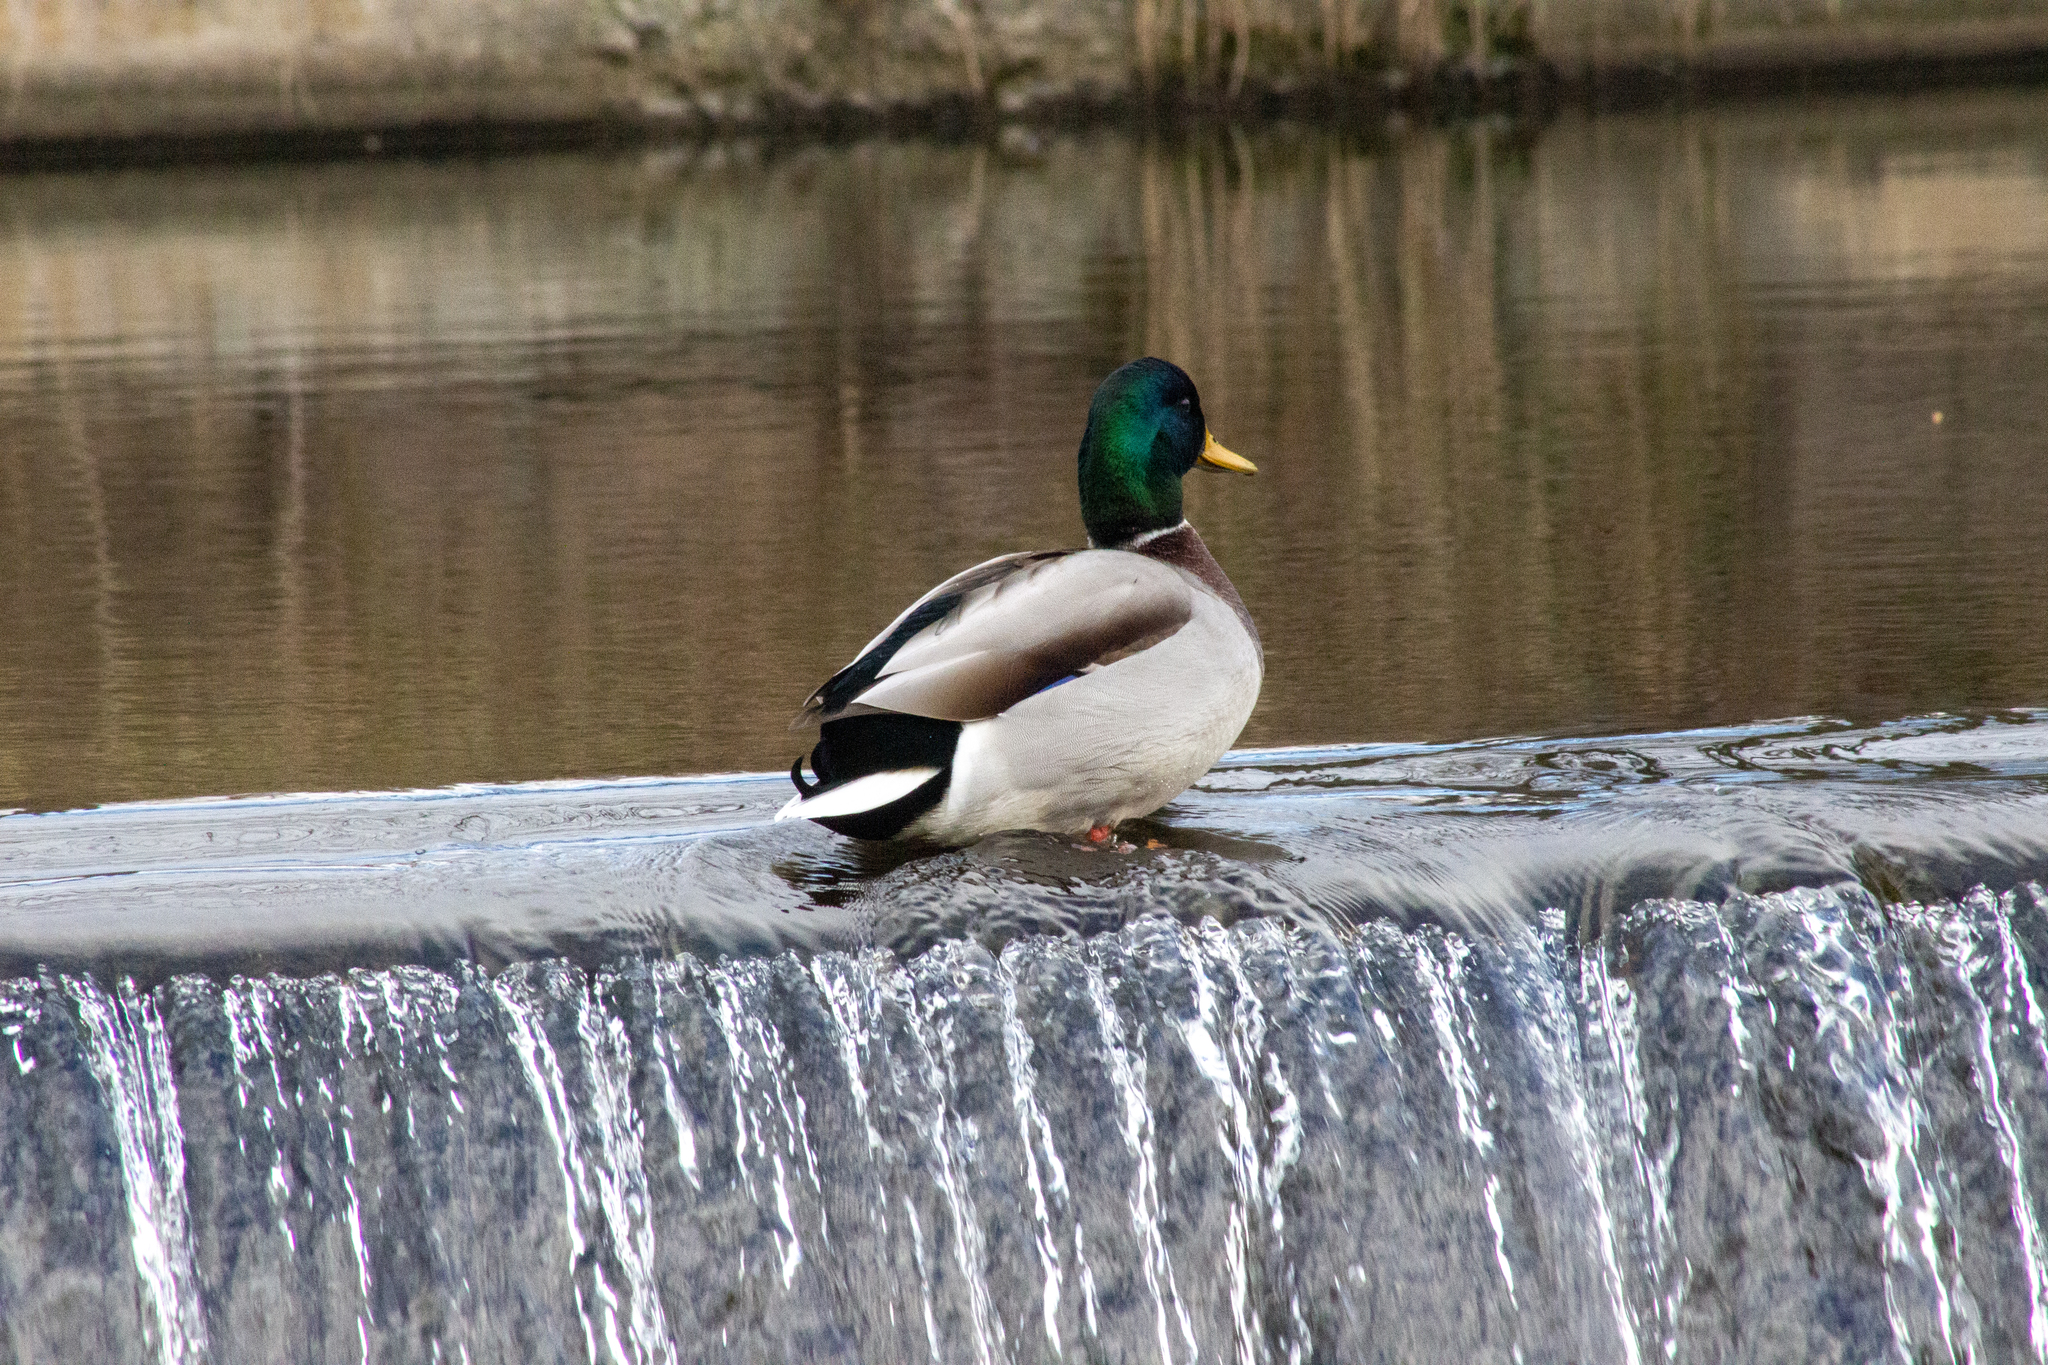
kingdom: Animalia
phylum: Chordata
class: Aves
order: Anseriformes
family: Anatidae
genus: Anas
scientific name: Anas platyrhynchos
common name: Mallard
